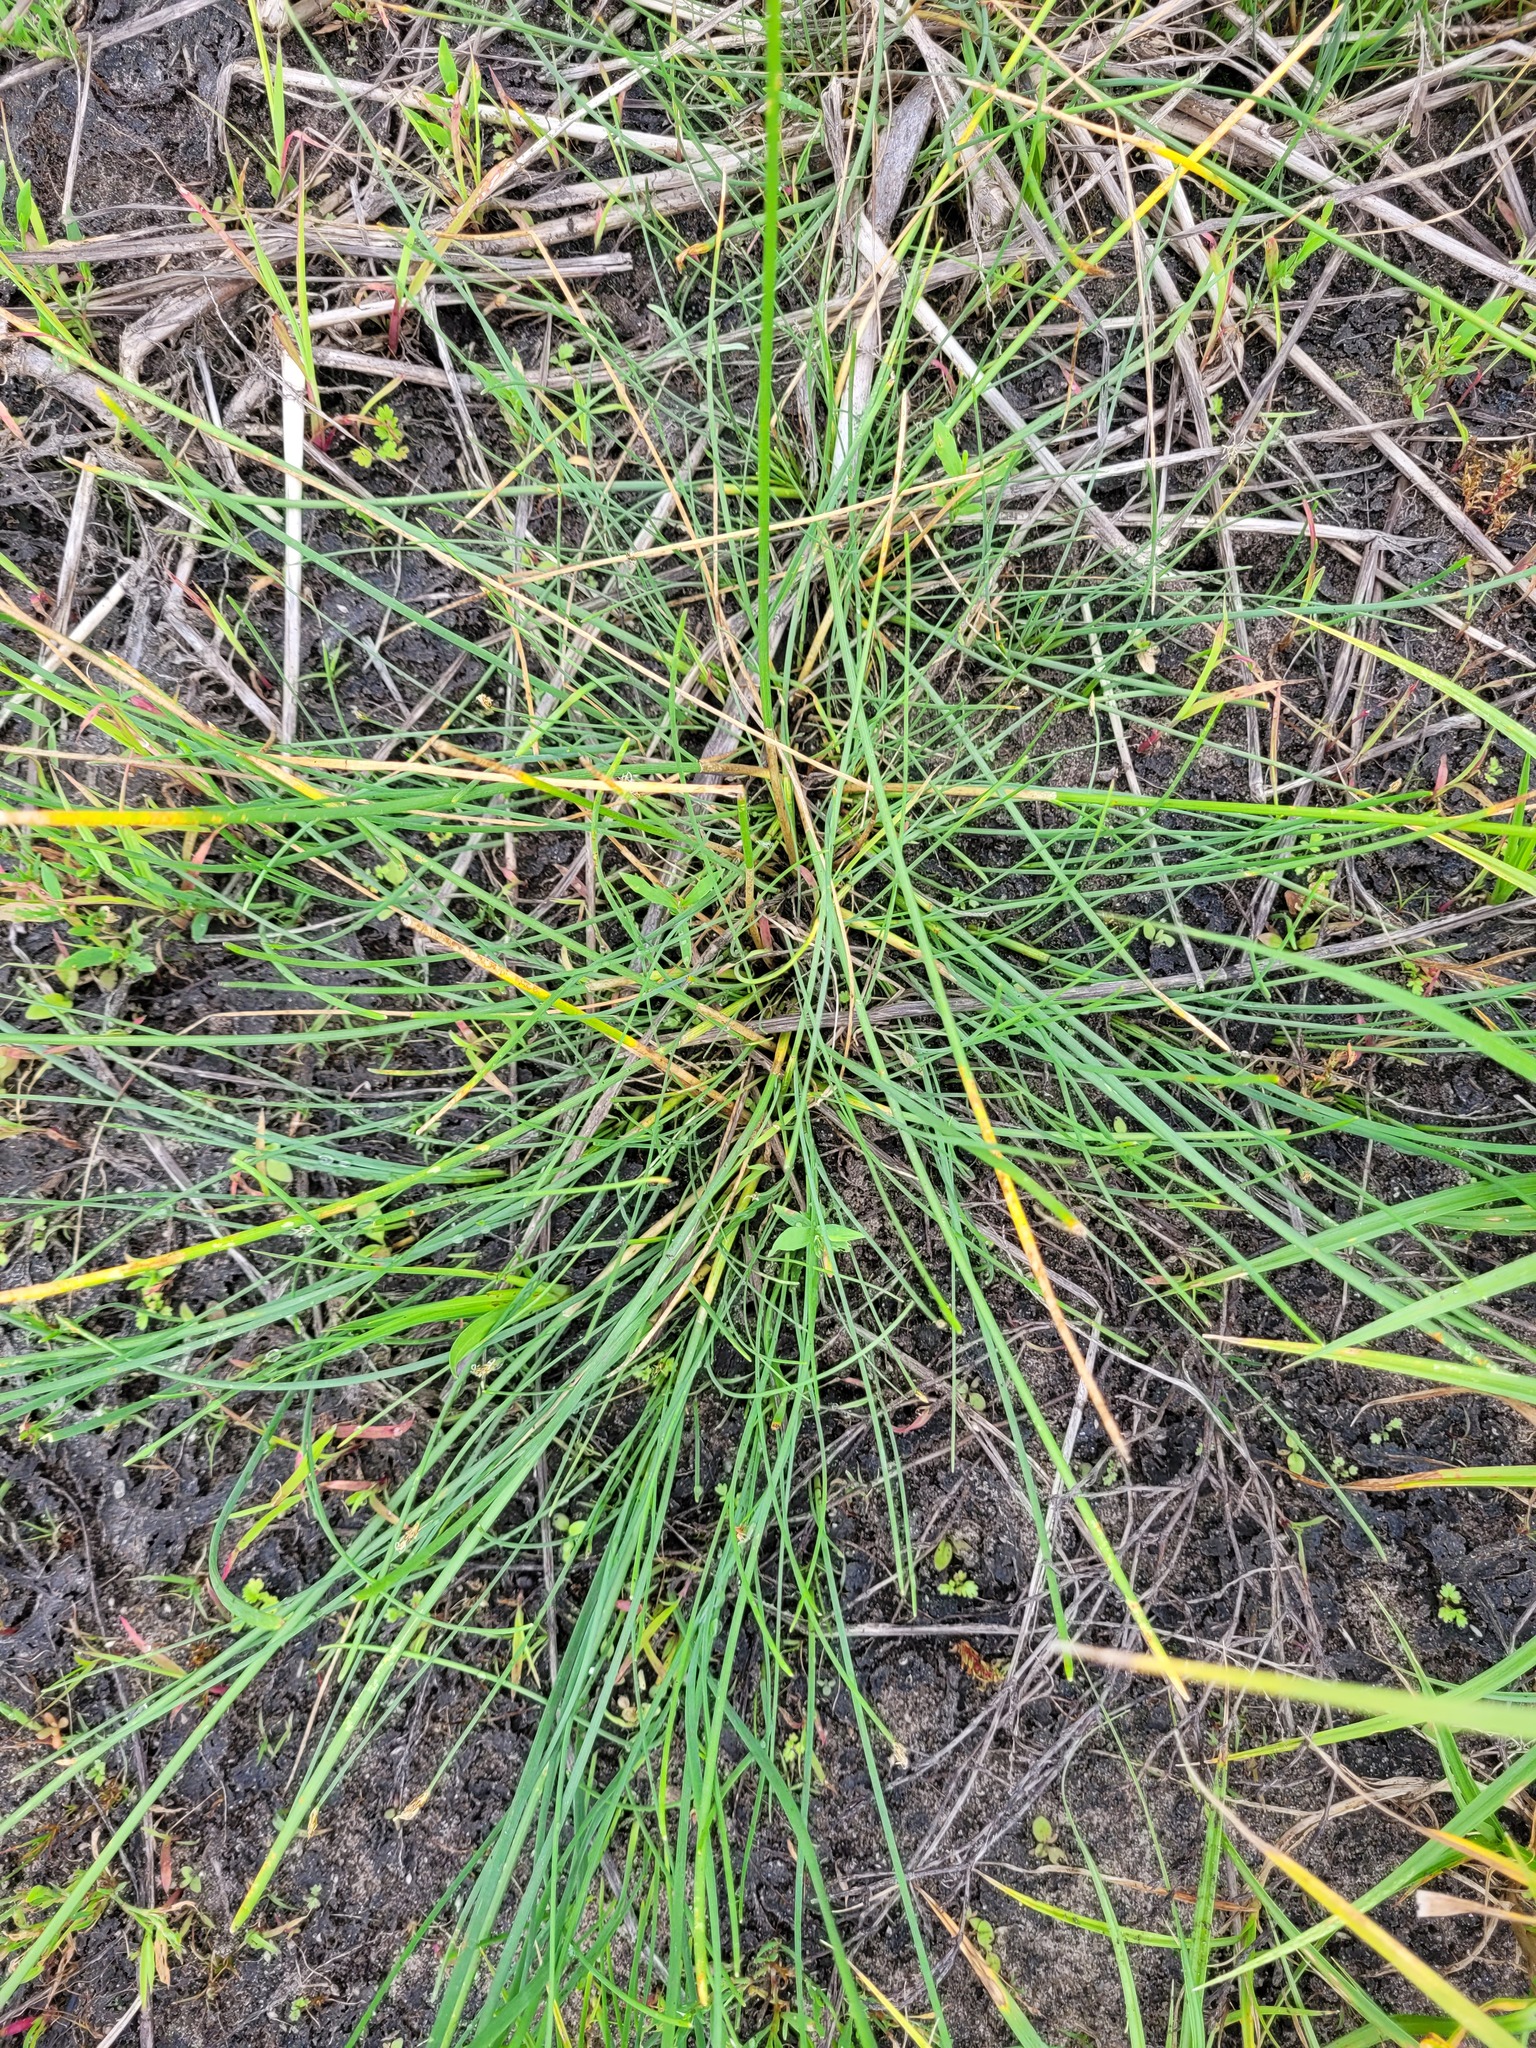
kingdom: Plantae
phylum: Tracheophyta
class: Liliopsida
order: Poales
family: Cyperaceae
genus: Eleocharis
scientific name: Eleocharis uniglumis
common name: Slender spike-rush
